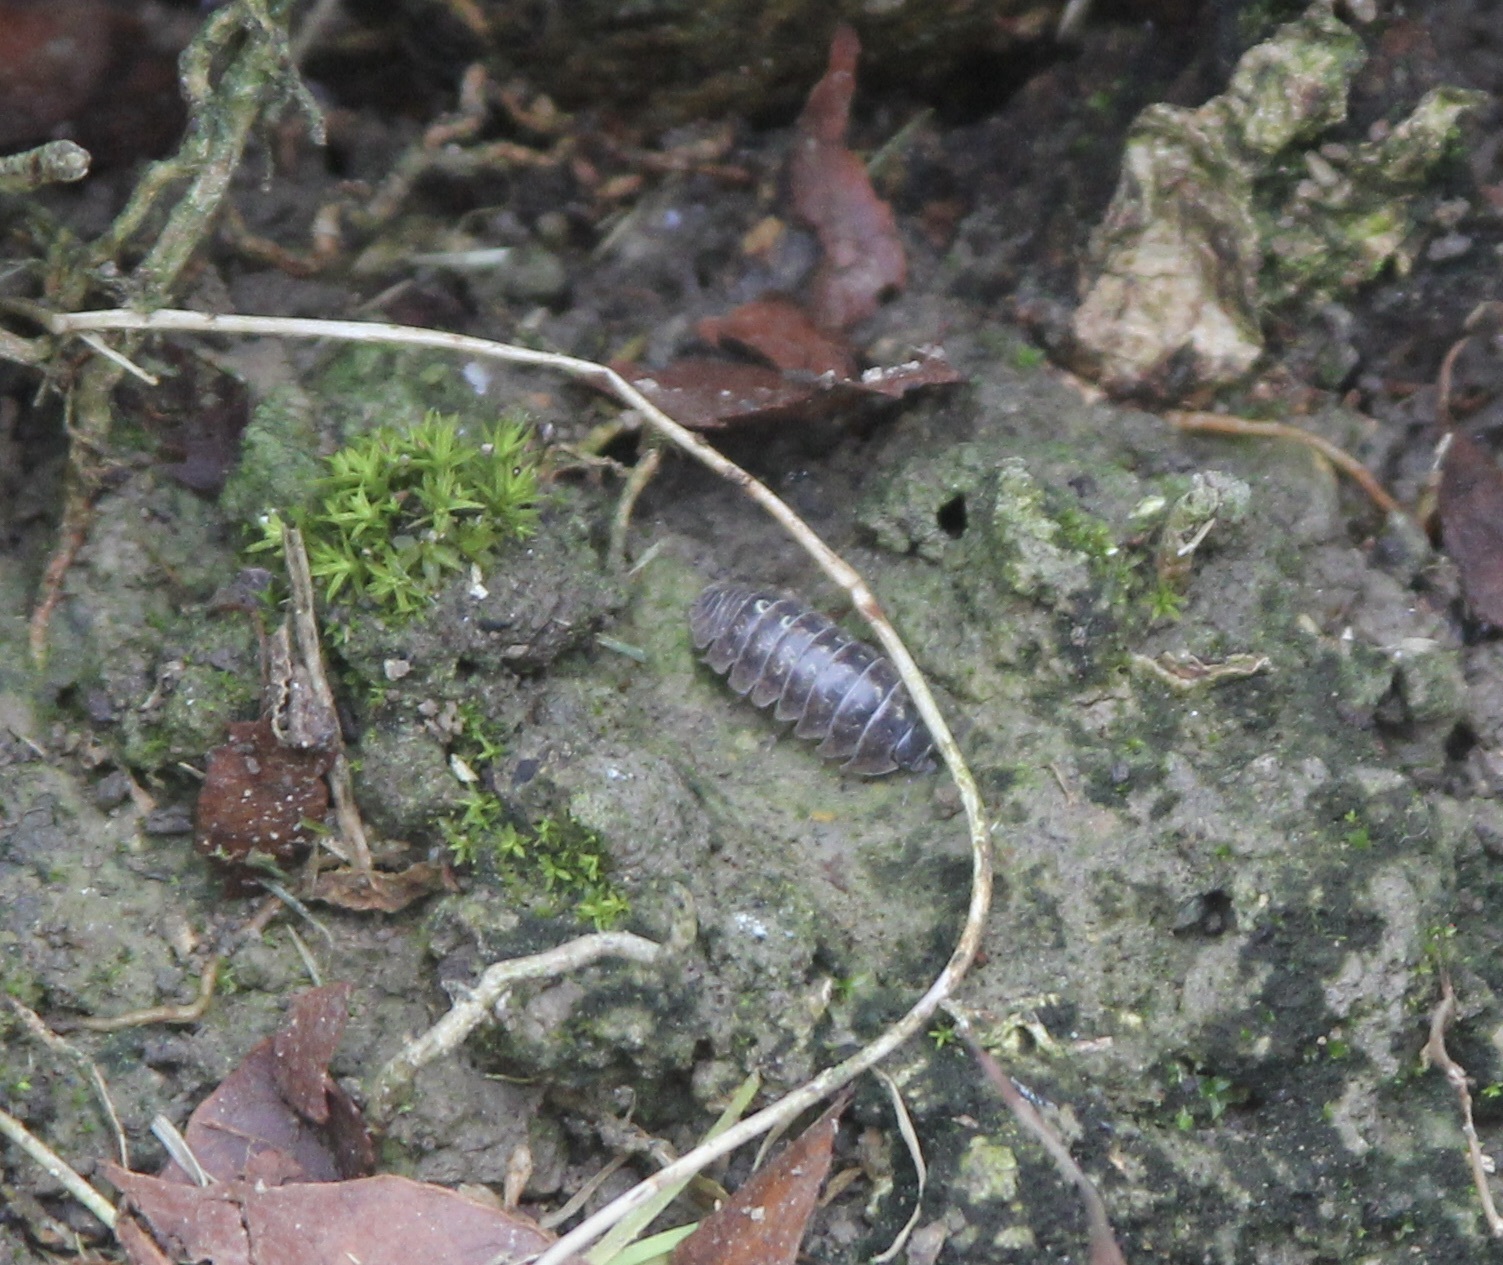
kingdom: Animalia
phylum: Arthropoda
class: Malacostraca
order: Isopoda
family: Armadillidiidae
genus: Armadillidium
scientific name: Armadillidium vulgare
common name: Common pill woodlouse
